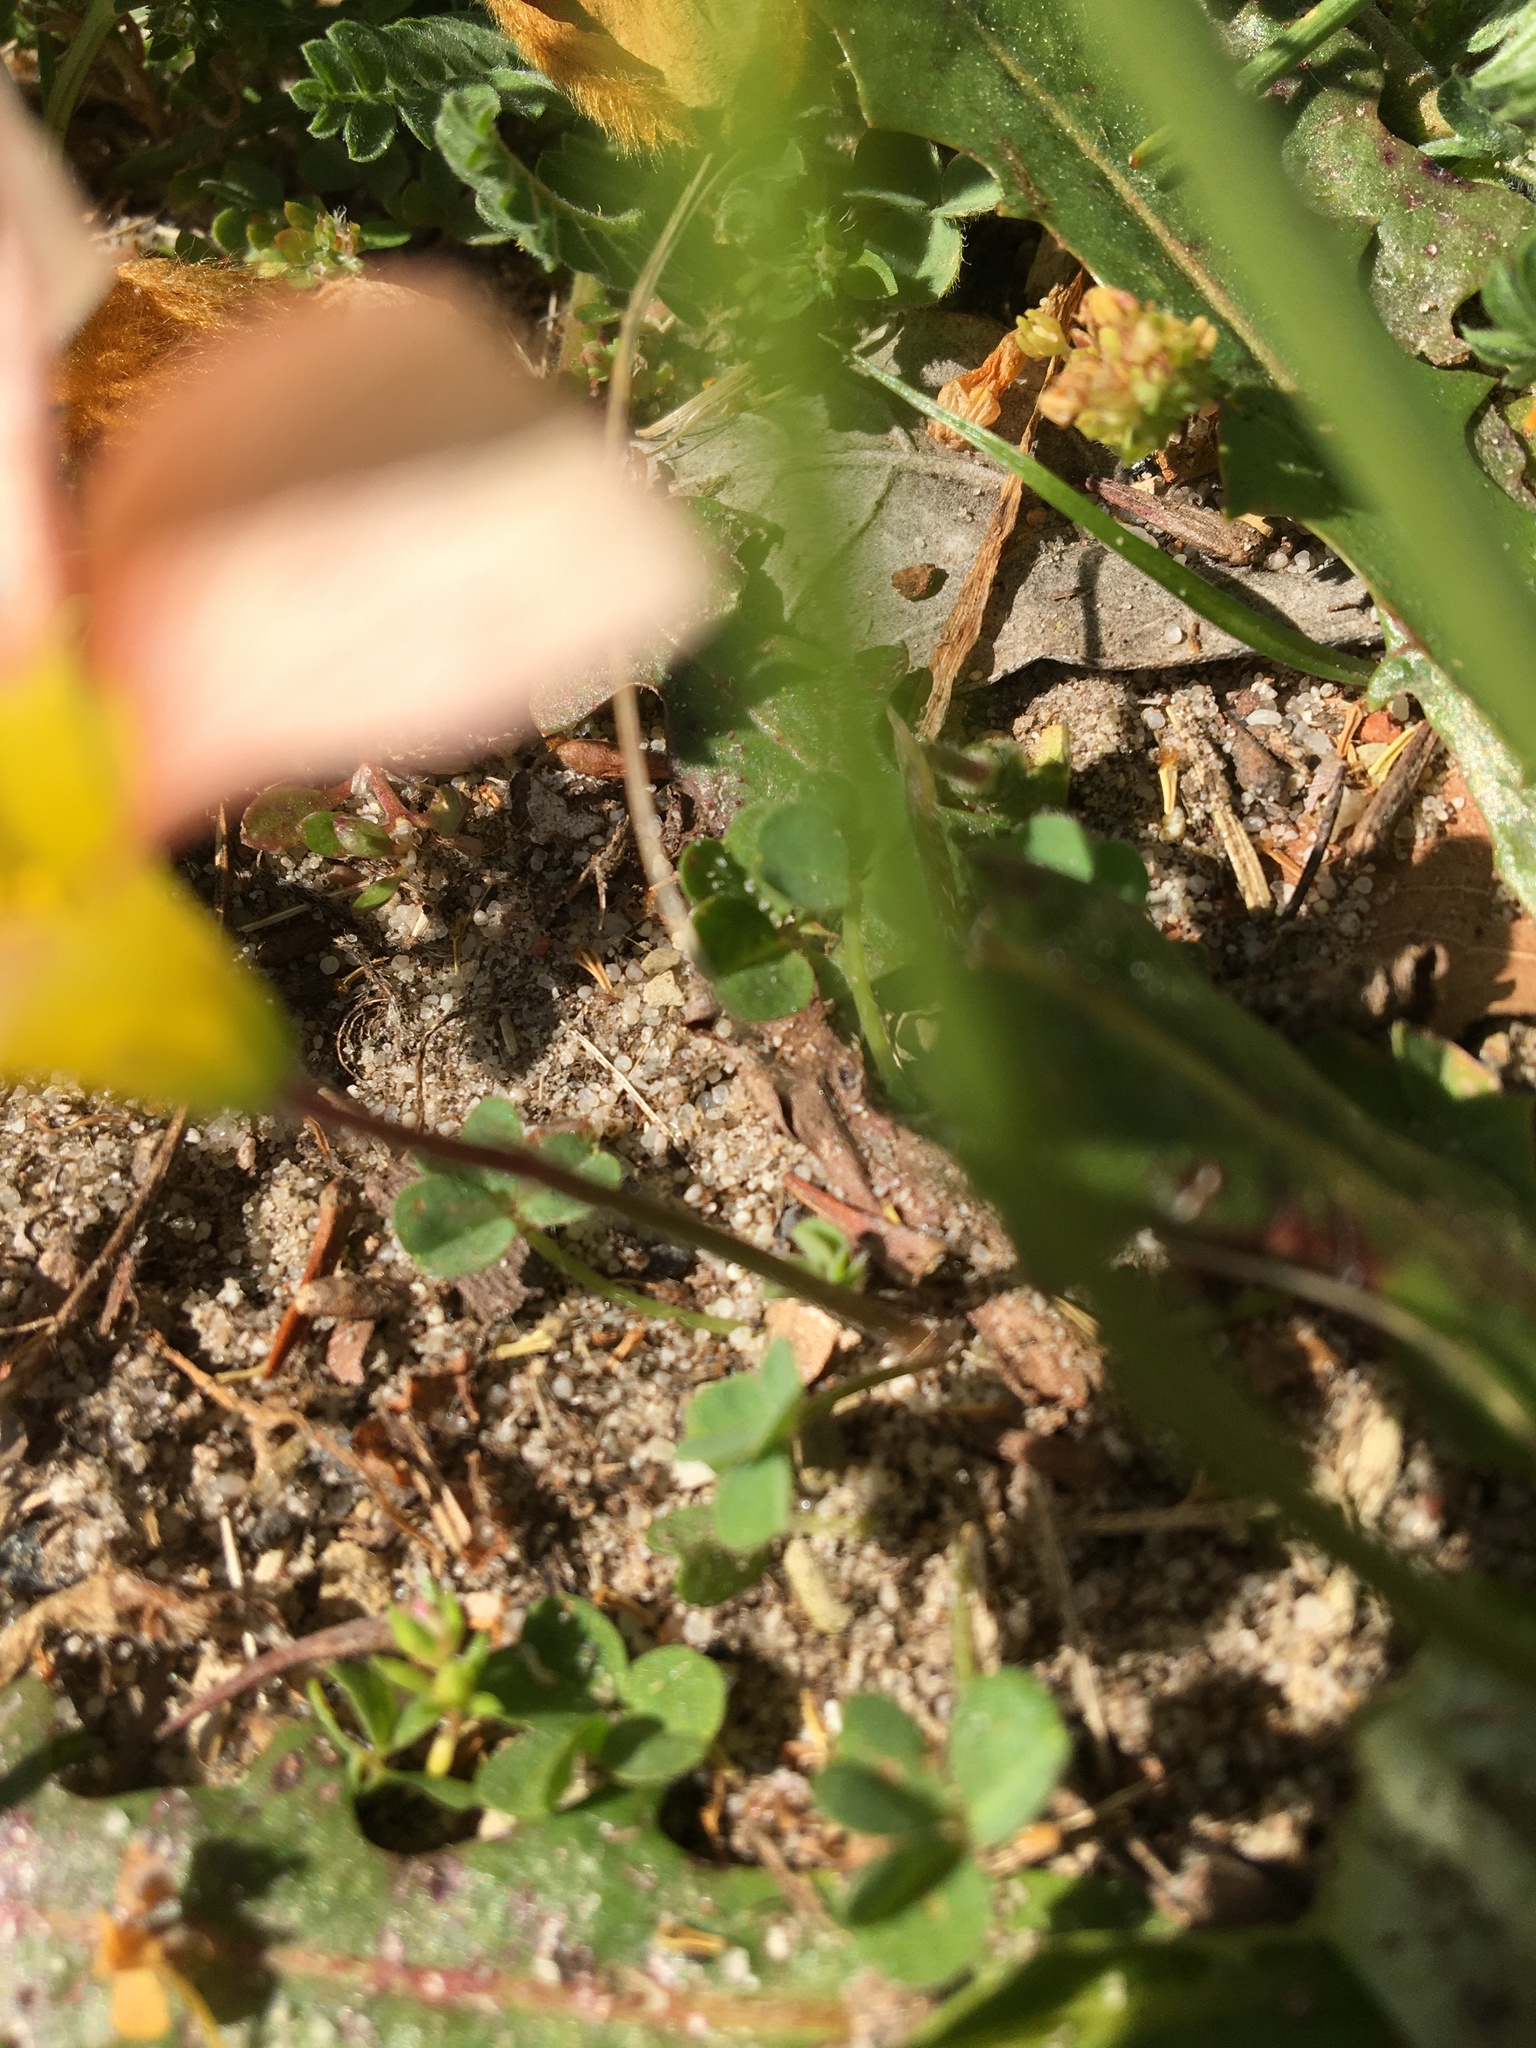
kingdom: Plantae
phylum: Tracheophyta
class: Magnoliopsida
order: Oxalidales
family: Oxalidaceae
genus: Oxalis
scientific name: Oxalis obtusa
